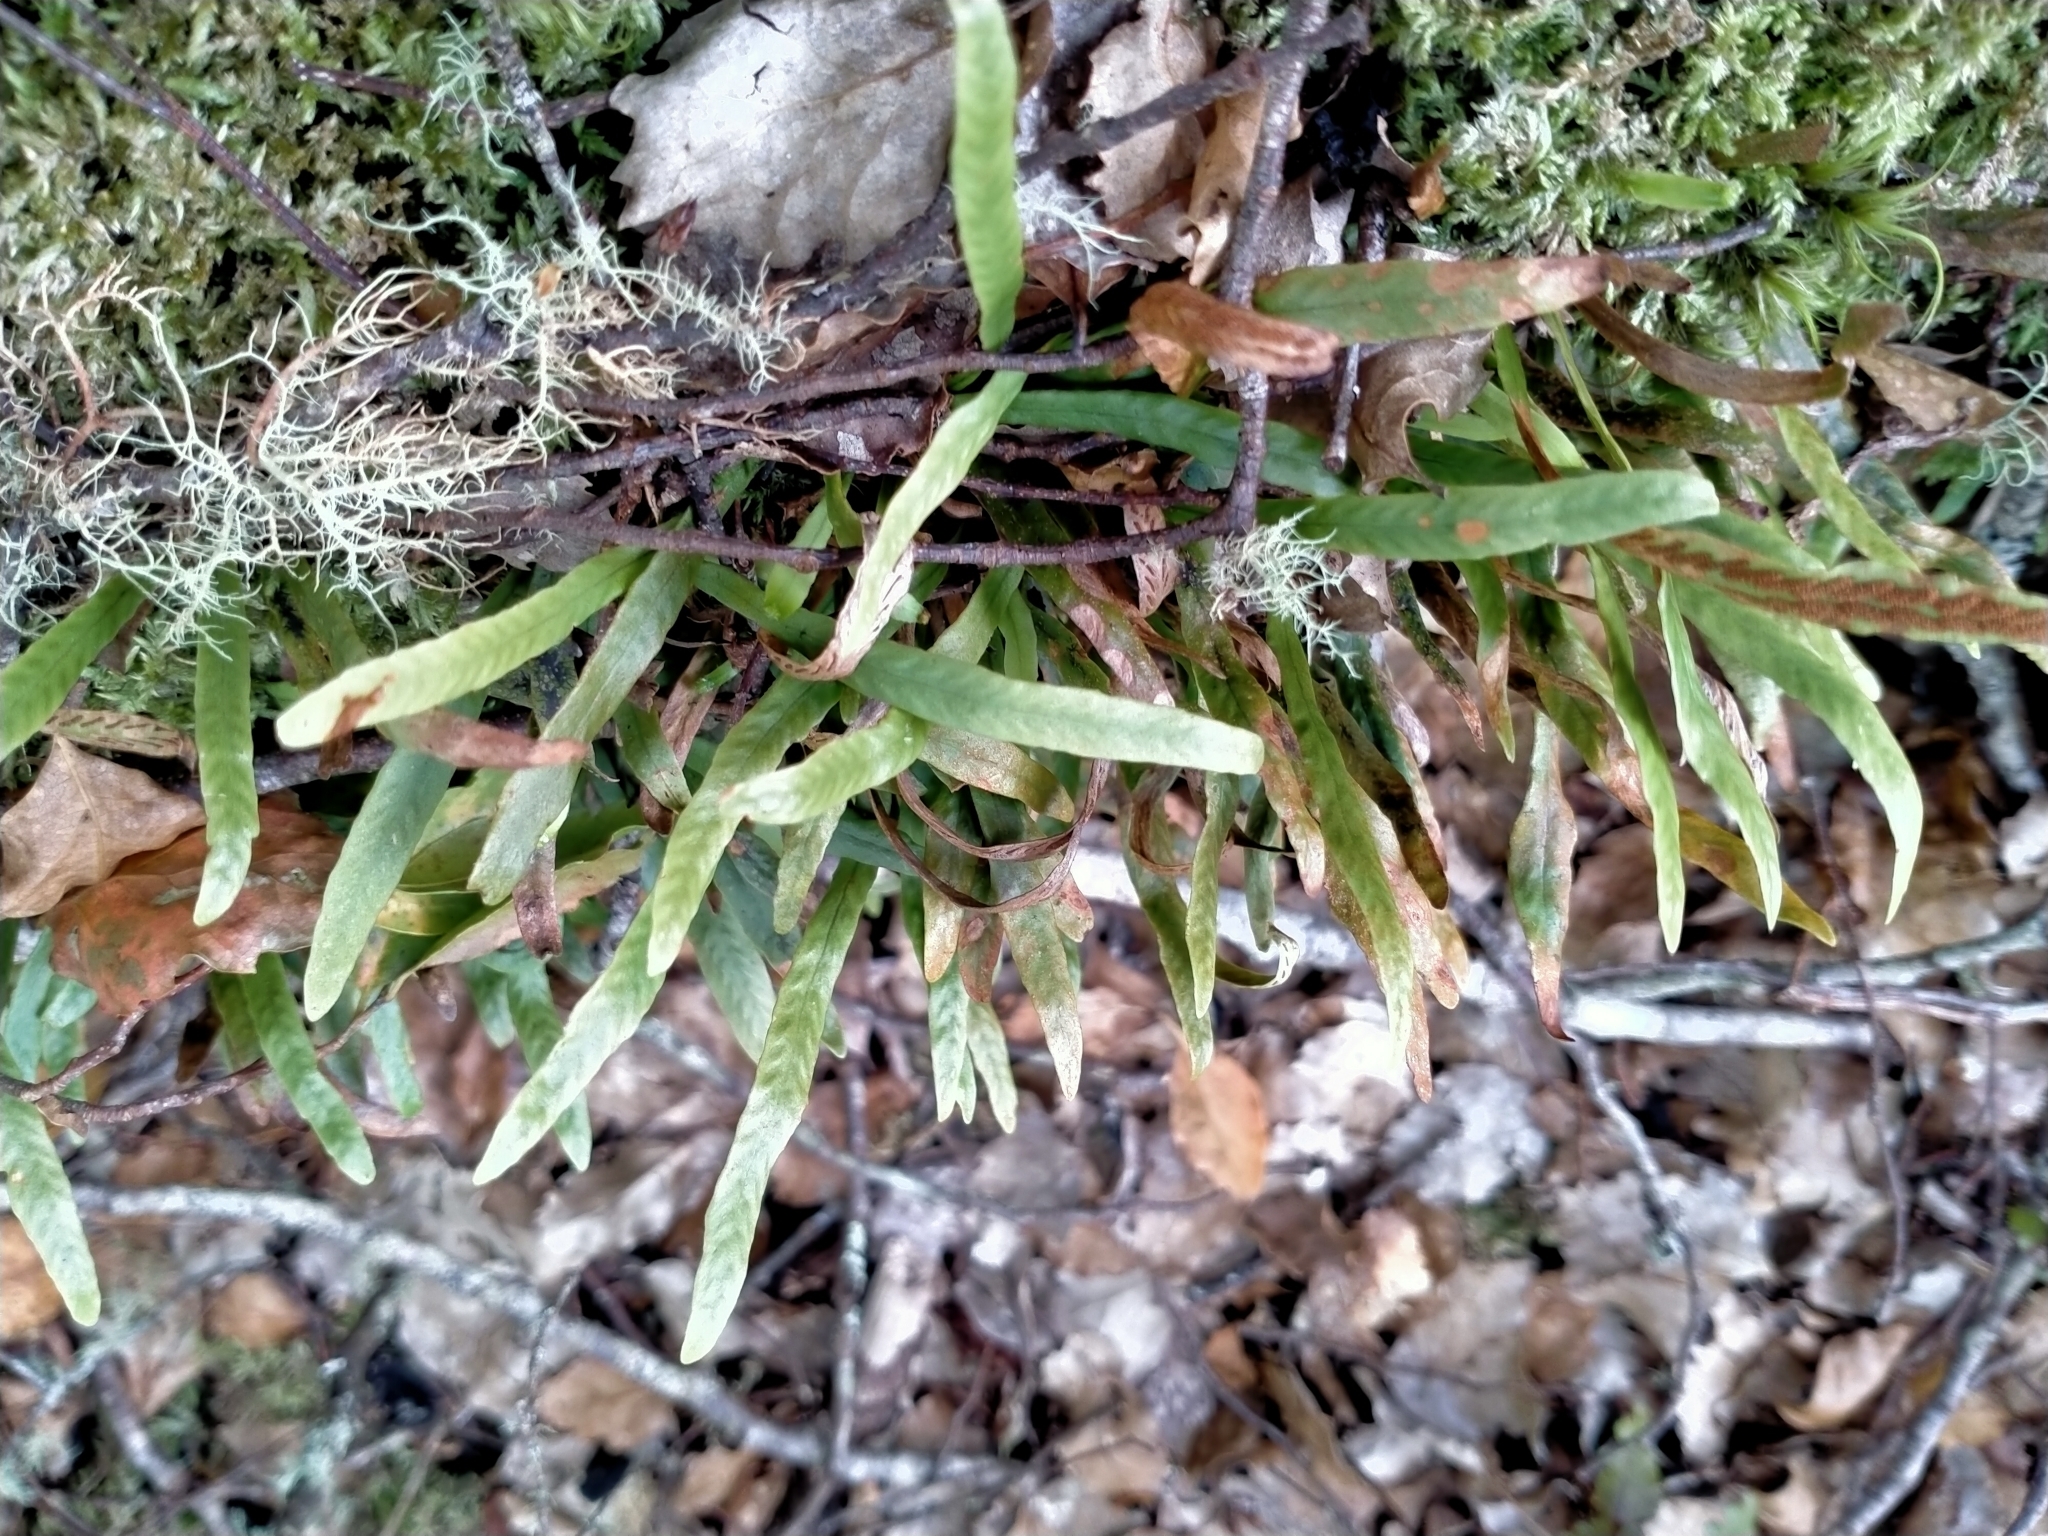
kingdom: Plantae
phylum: Tracheophyta
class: Polypodiopsida
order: Polypodiales
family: Polypodiaceae
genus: Notogrammitis
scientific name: Notogrammitis billardierei
